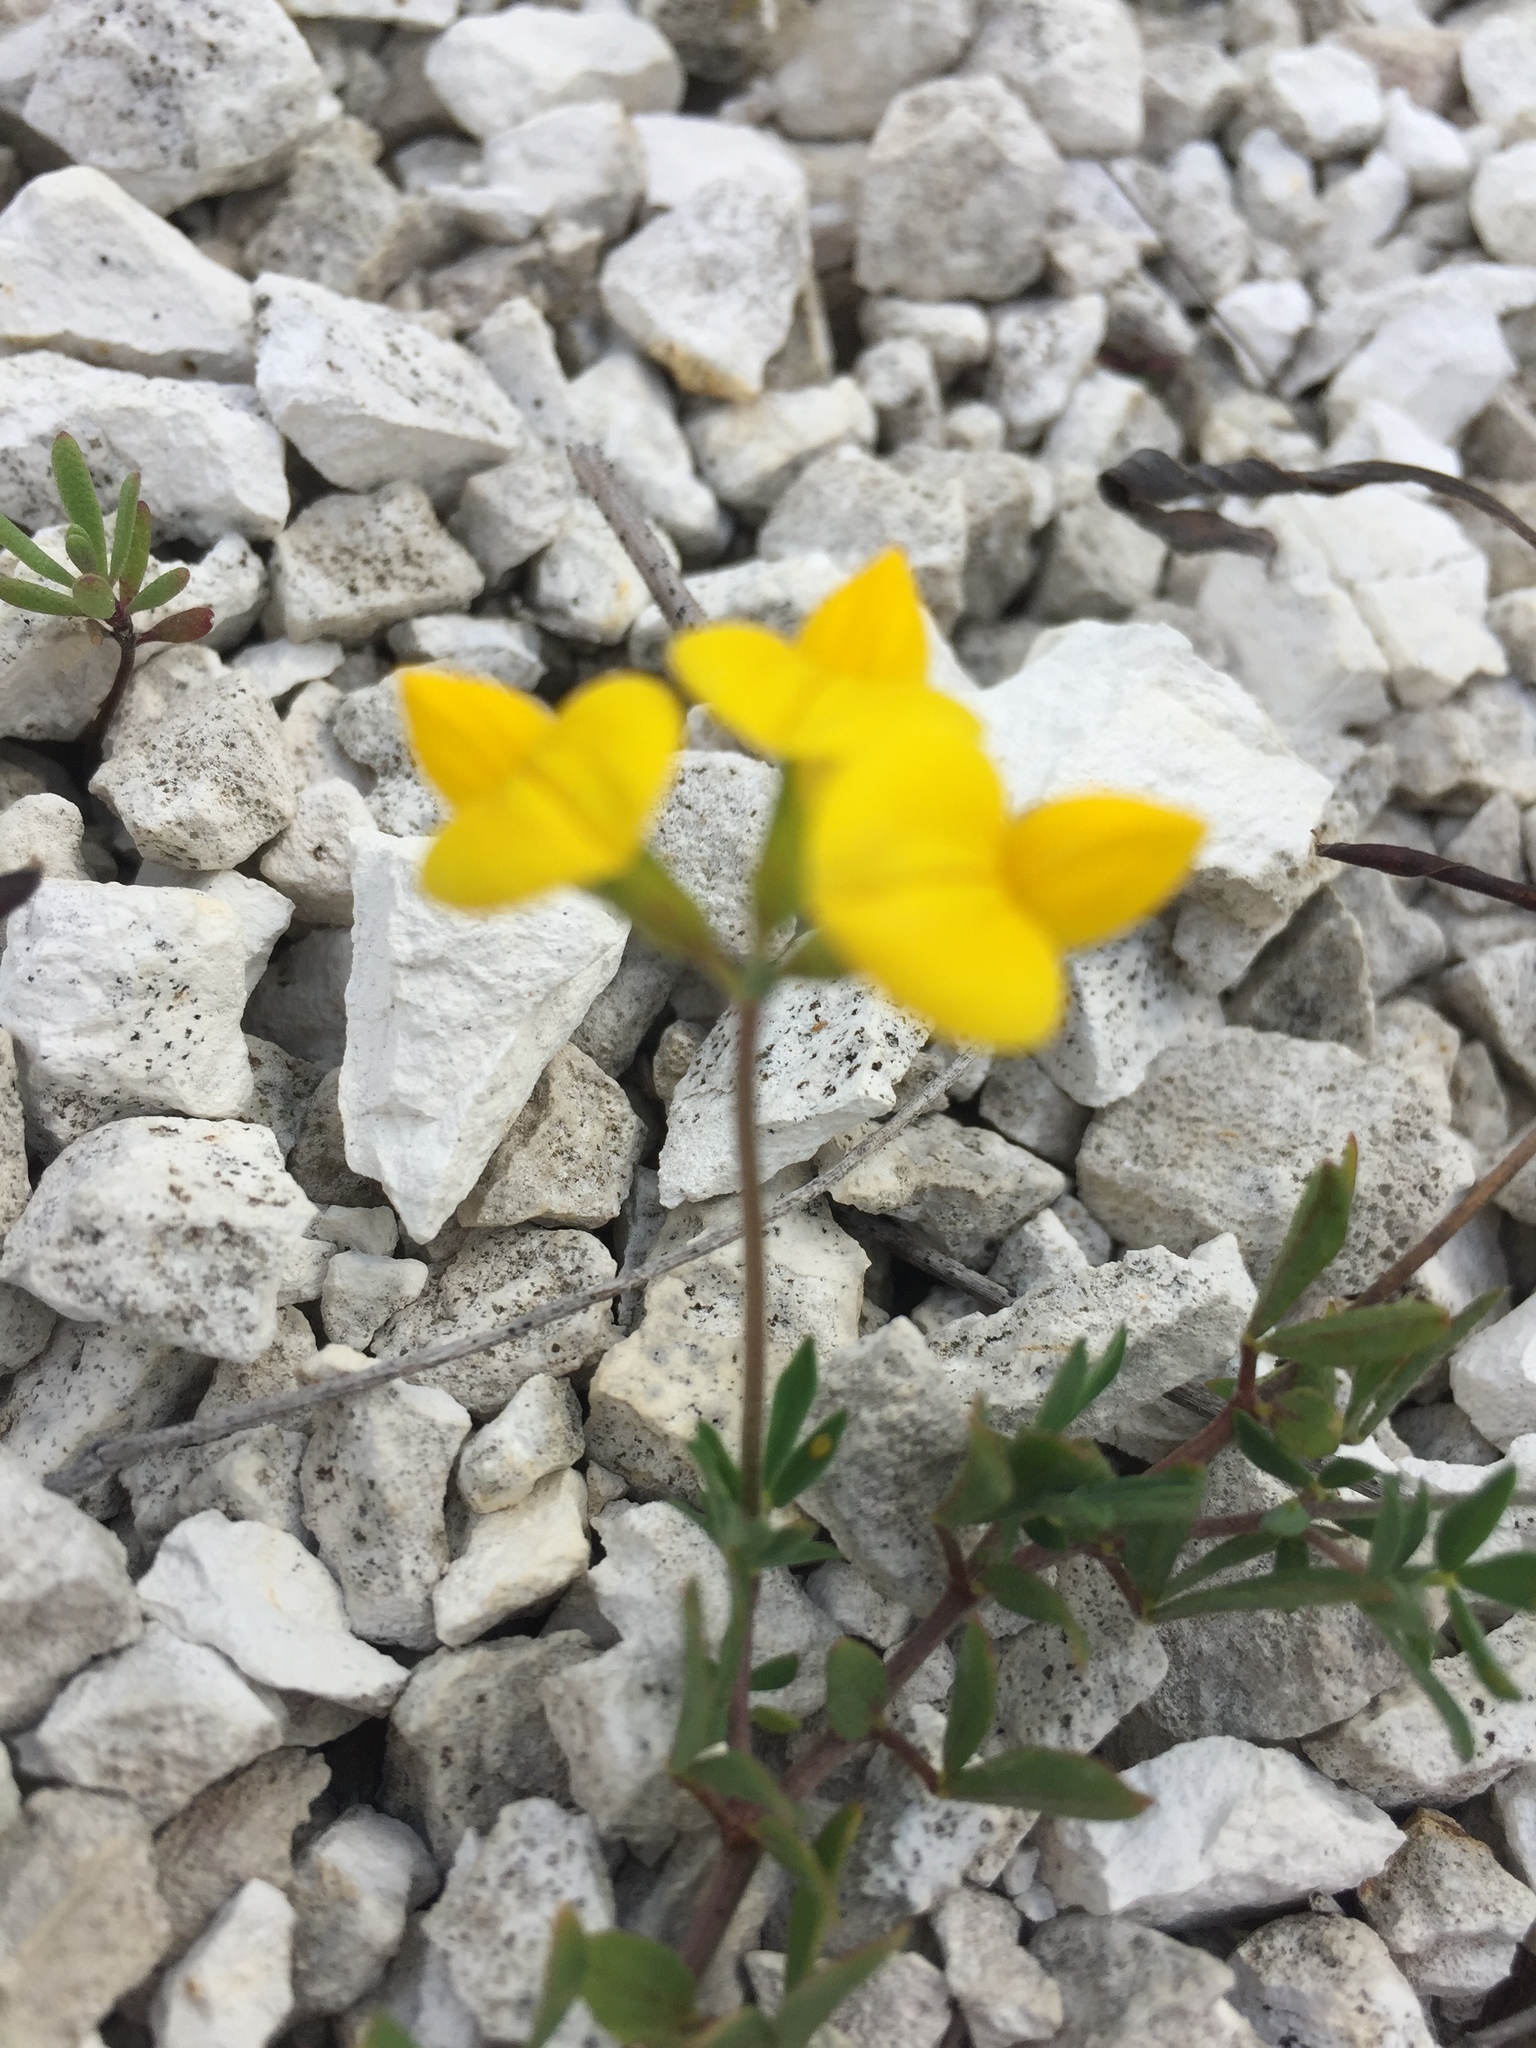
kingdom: Plantae
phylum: Tracheophyta
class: Magnoliopsida
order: Fabales
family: Fabaceae
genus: Lotus
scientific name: Lotus corniculatus
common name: Common bird's-foot-trefoil
